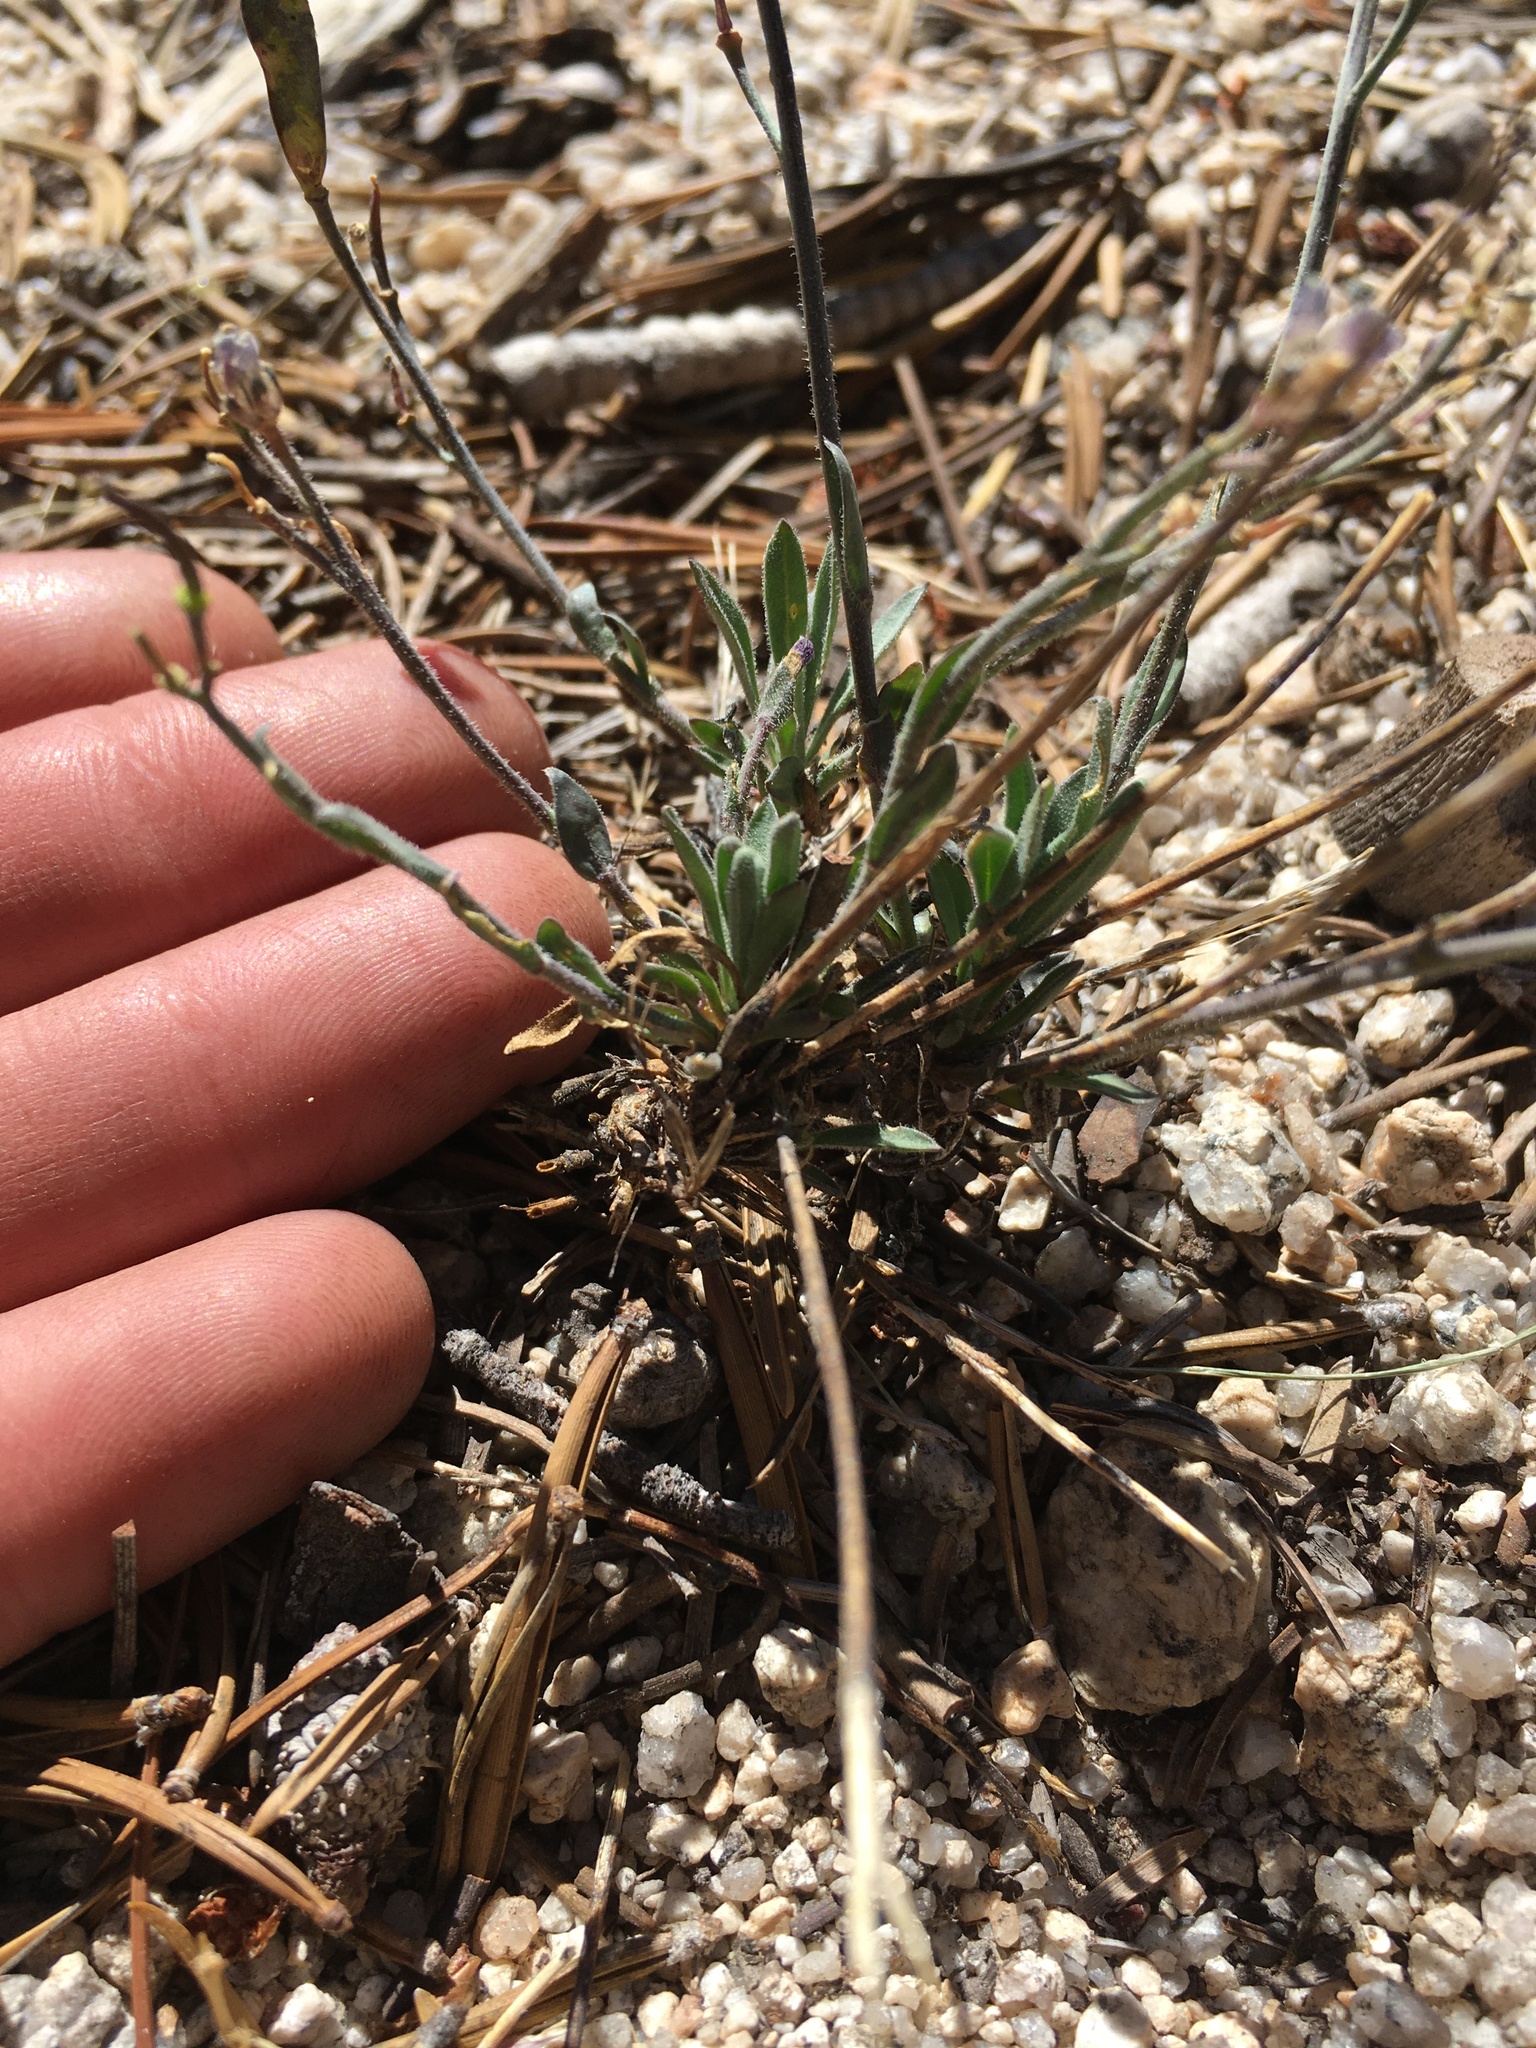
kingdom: Plantae
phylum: Tracheophyta
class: Magnoliopsida
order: Brassicales
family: Brassicaceae
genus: Boechera
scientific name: Boechera platysperma
